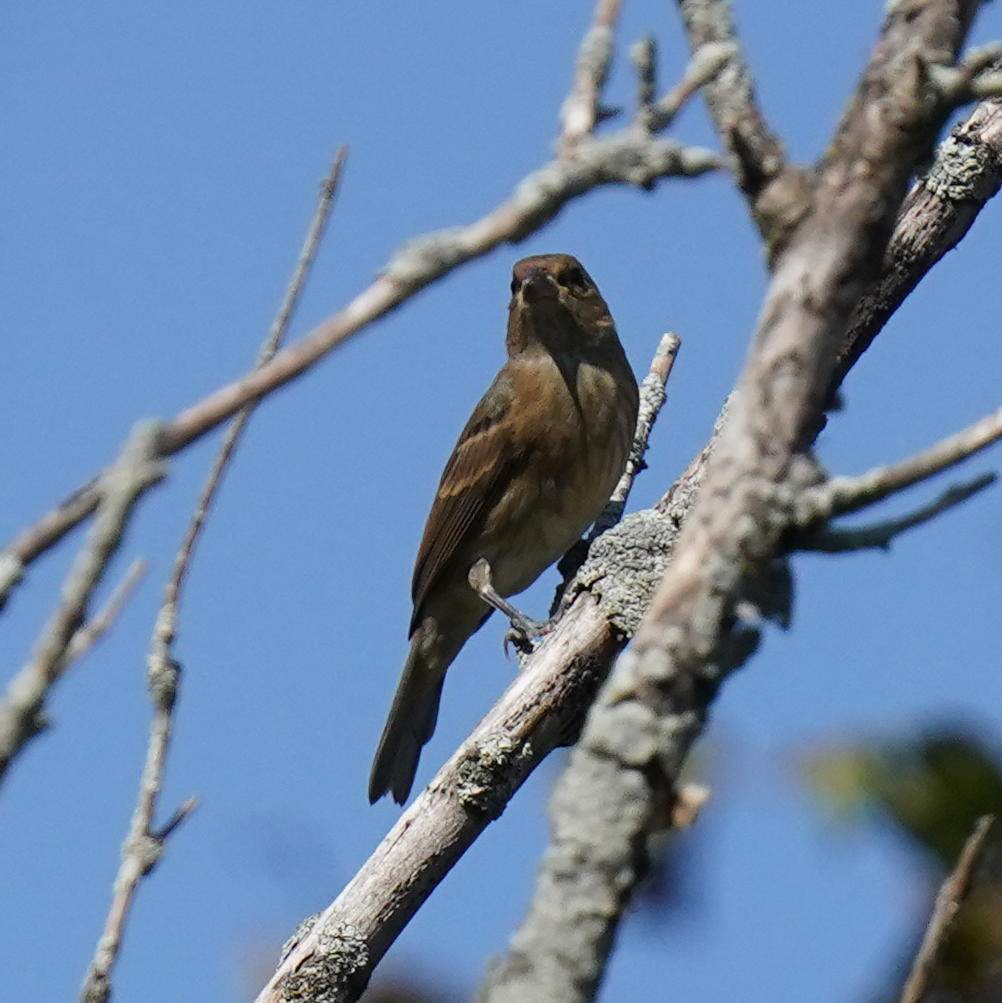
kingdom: Animalia
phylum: Chordata
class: Aves
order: Passeriformes
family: Cardinalidae
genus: Passerina
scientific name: Passerina cyanea
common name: Indigo bunting
